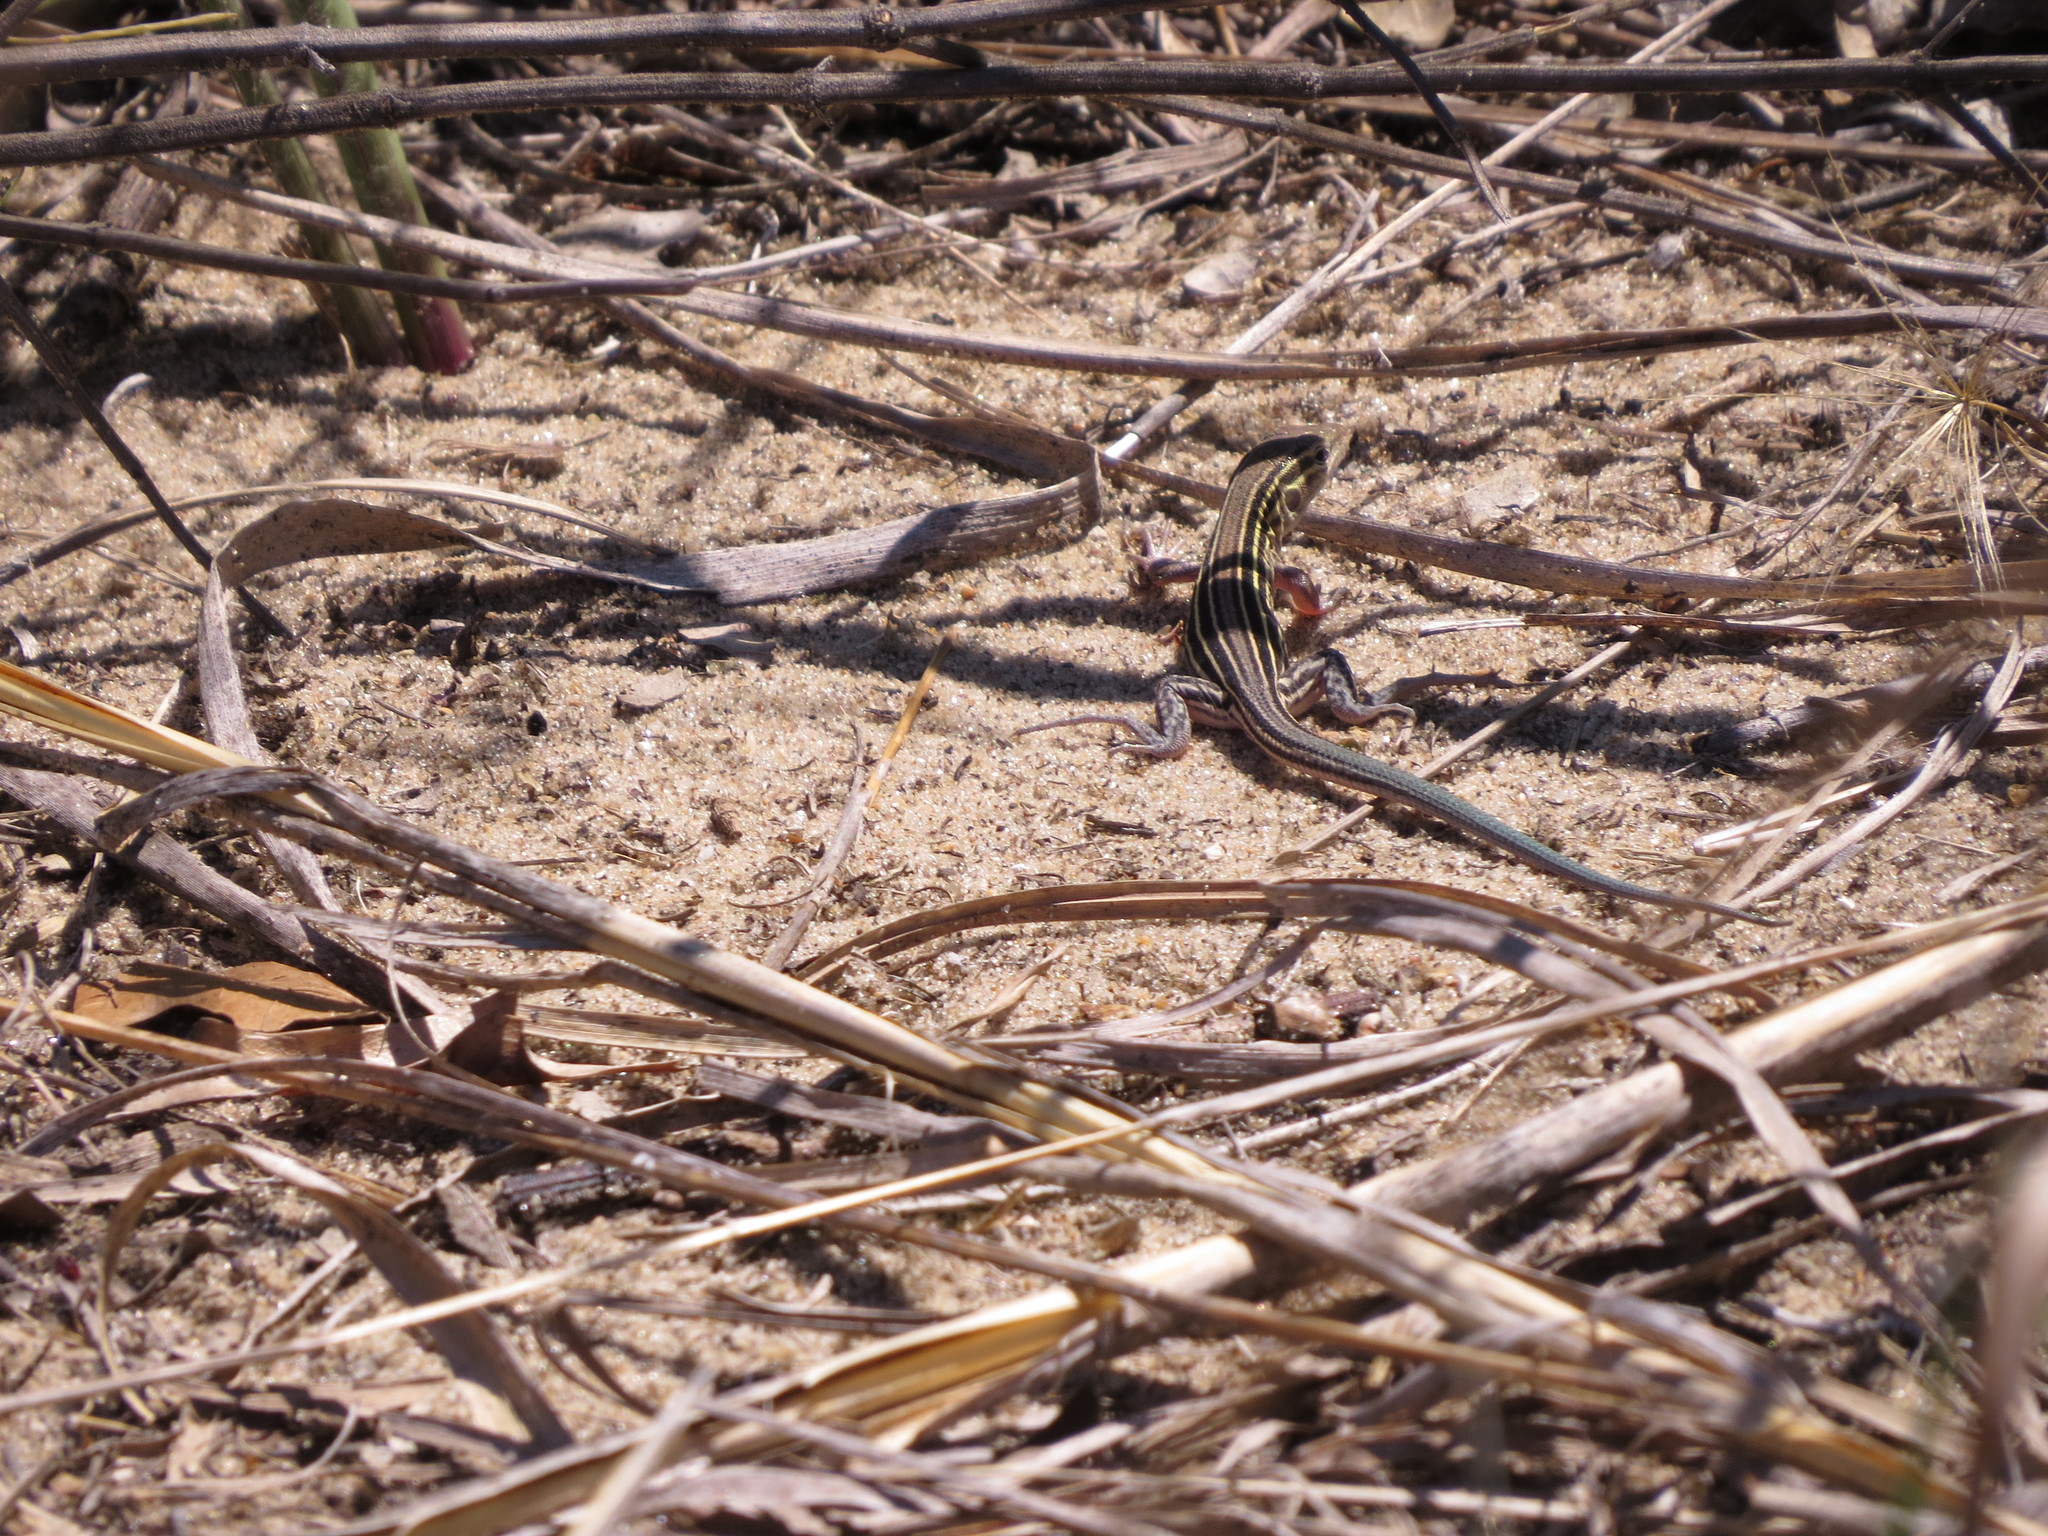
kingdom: Animalia
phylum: Chordata
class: Squamata
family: Teiidae
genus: Aspidoscelis
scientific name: Aspidoscelis sexlineatus
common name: Six-lined racerunner
